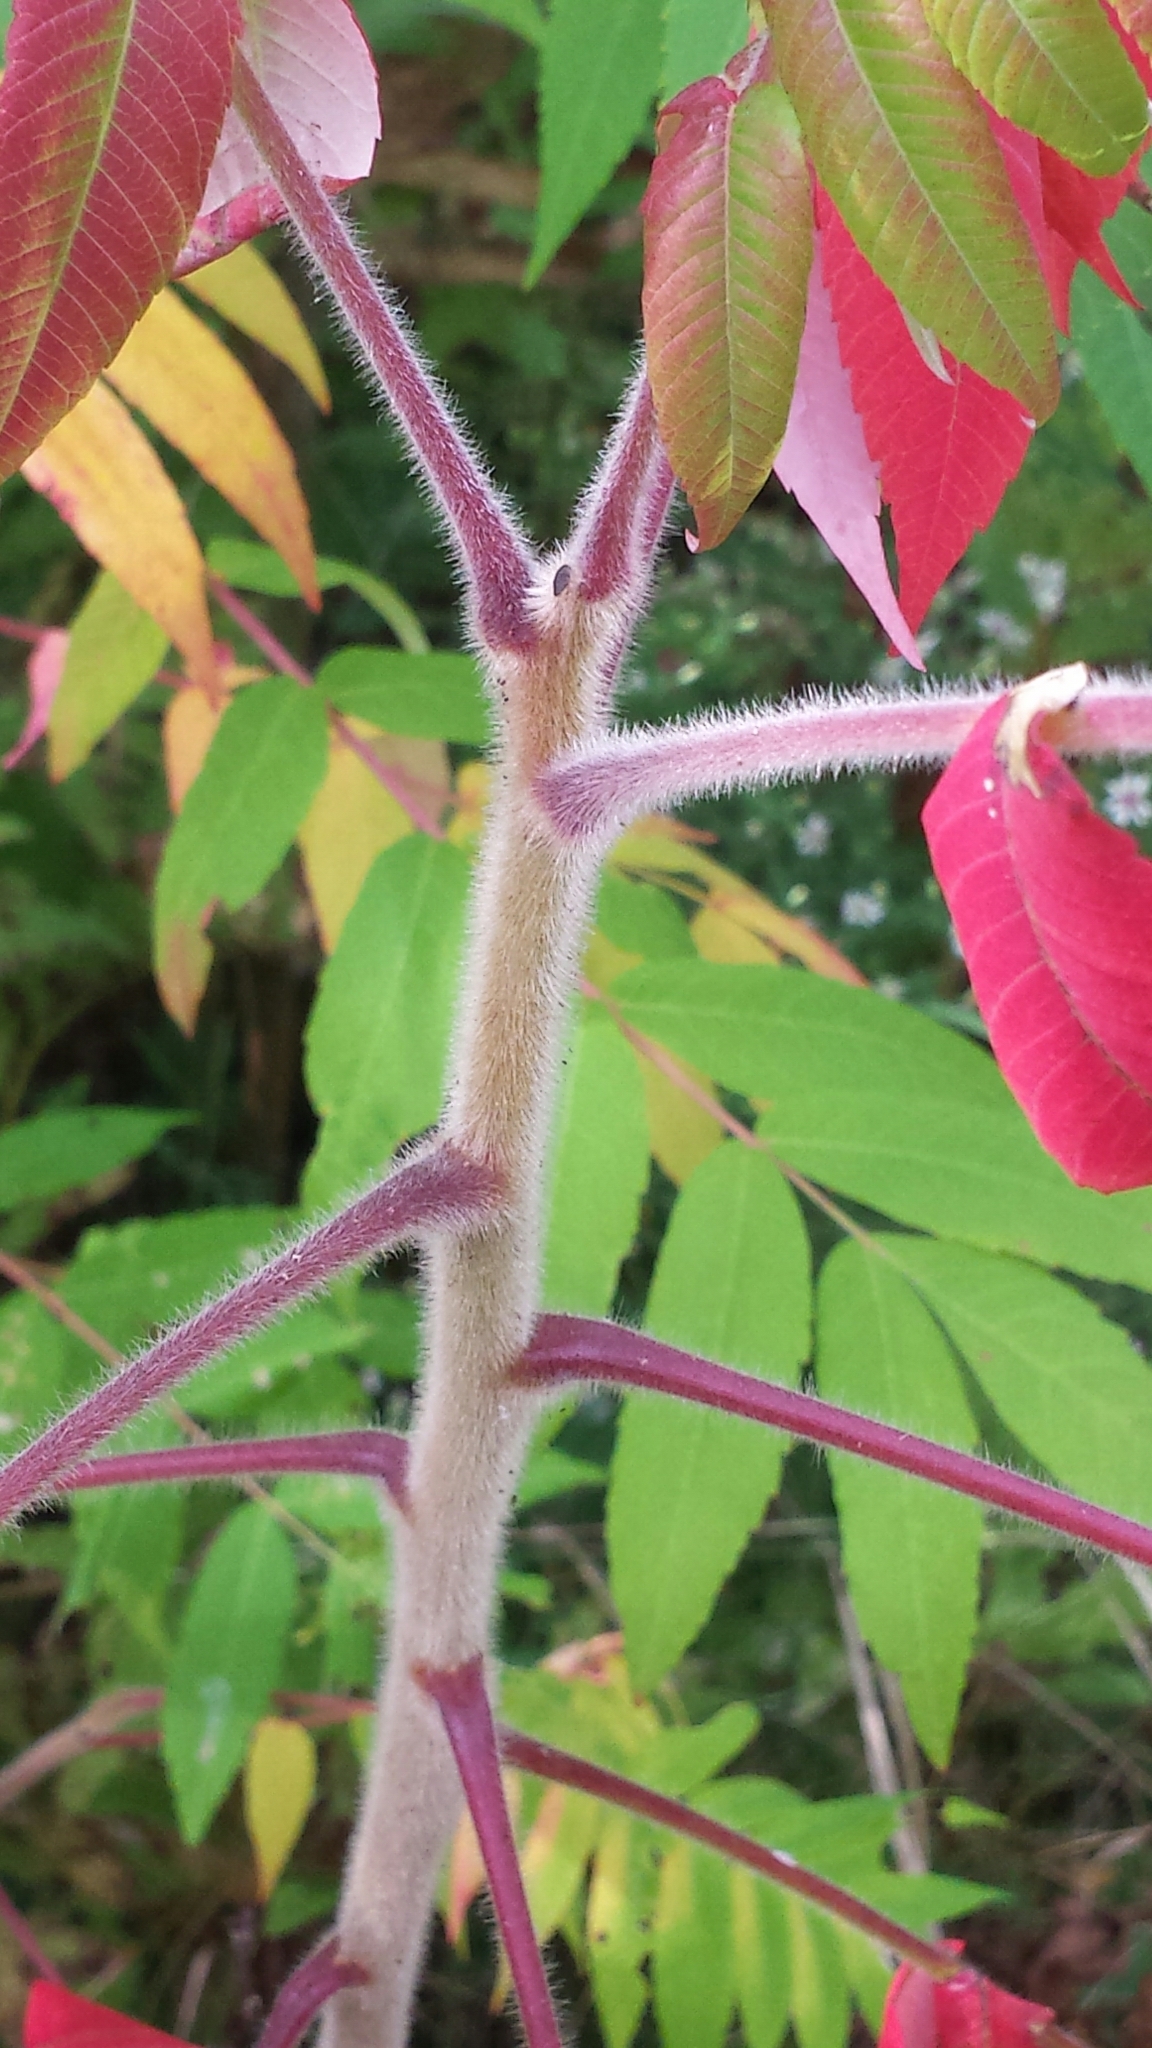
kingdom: Plantae
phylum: Tracheophyta
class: Magnoliopsida
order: Sapindales
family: Anacardiaceae
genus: Rhus
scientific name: Rhus typhina
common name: Staghorn sumac
